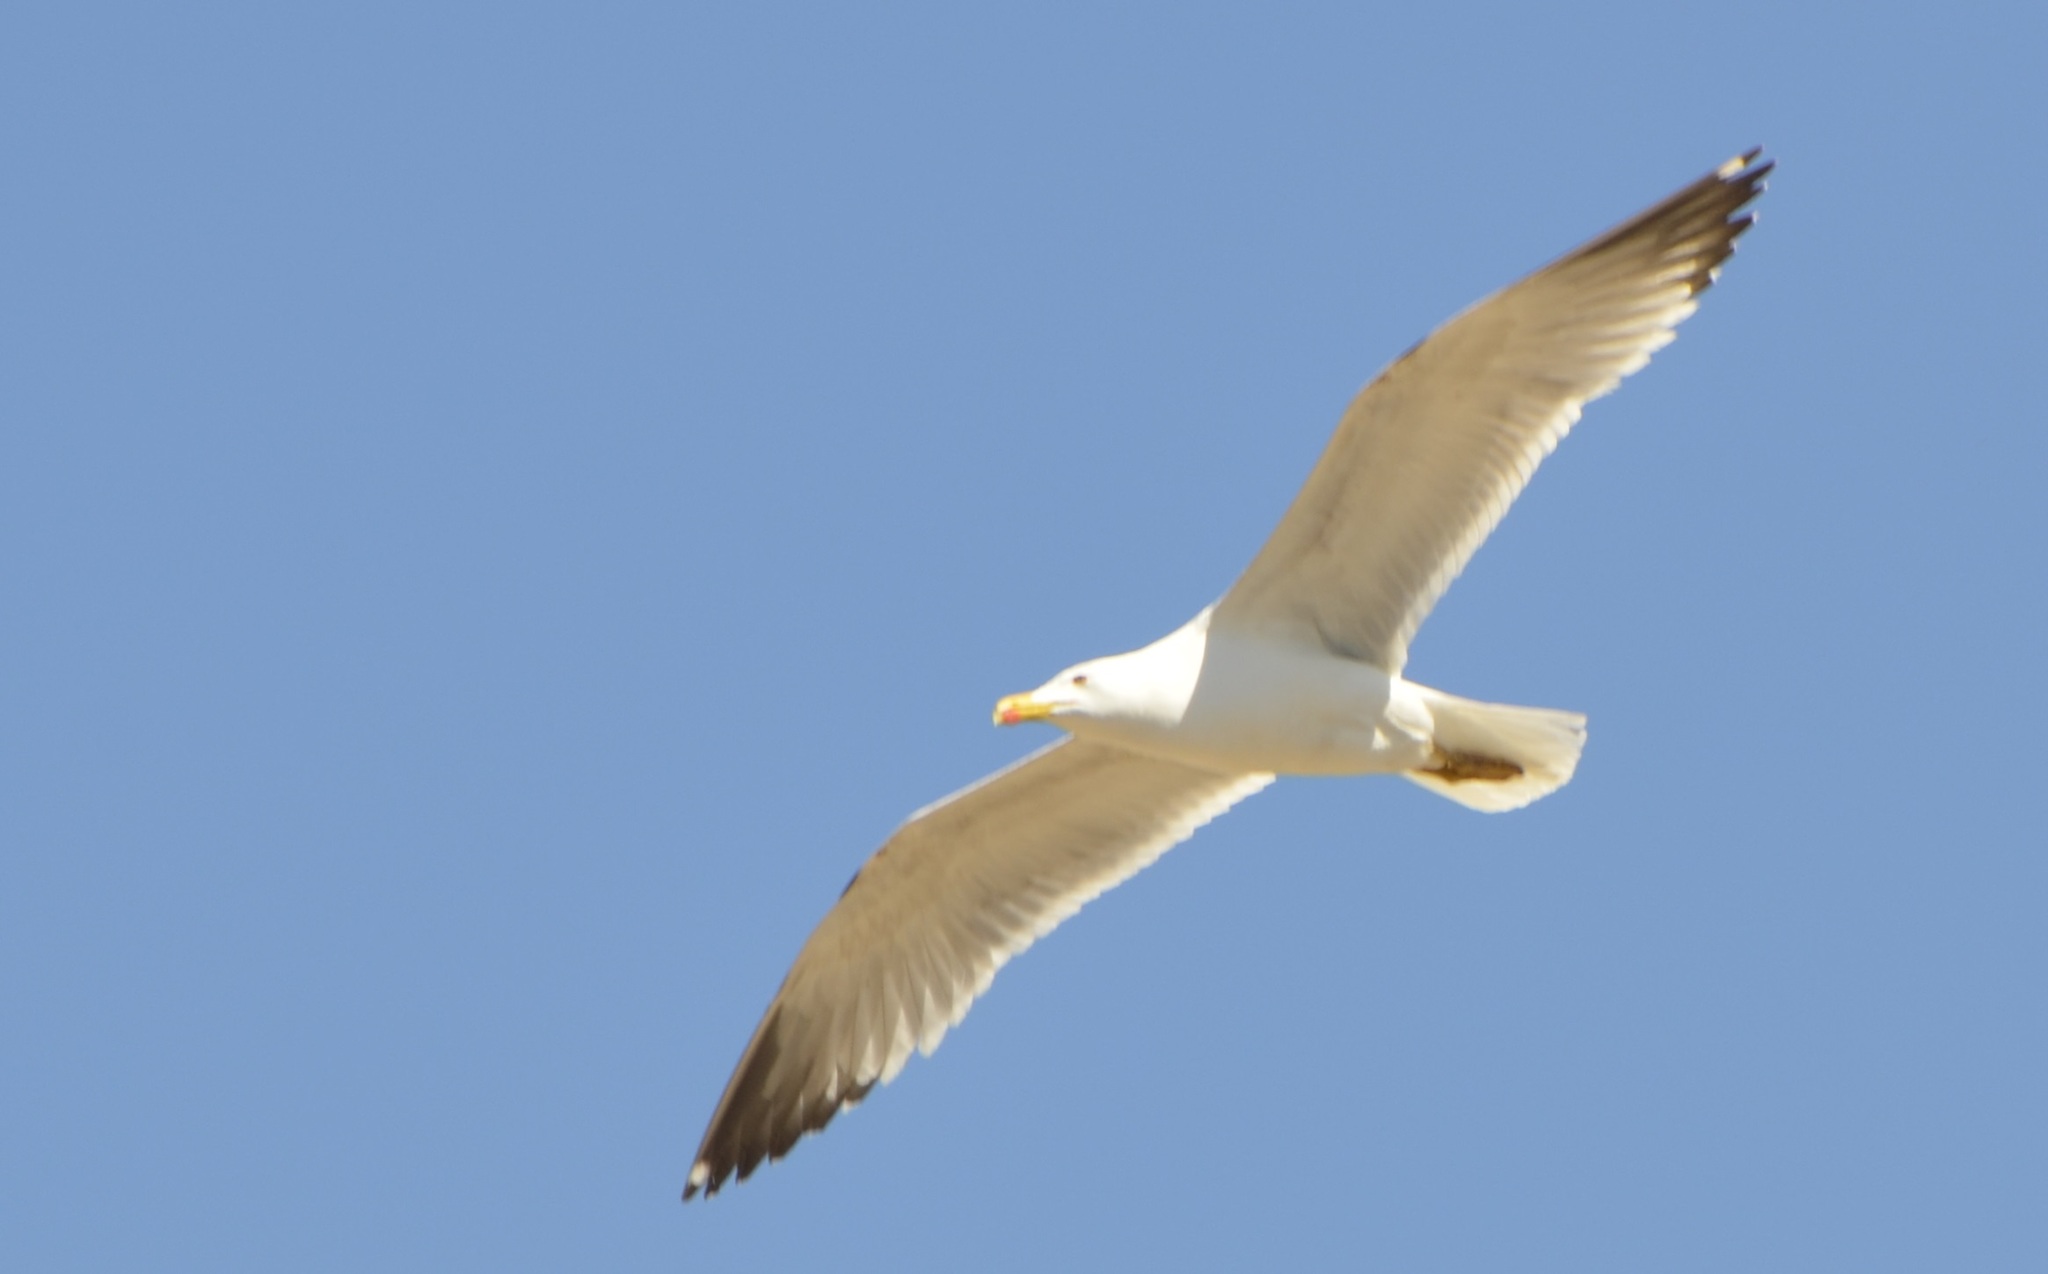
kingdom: Animalia
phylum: Chordata
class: Aves
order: Charadriiformes
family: Laridae
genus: Larus
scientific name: Larus michahellis
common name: Yellow-legged gull
